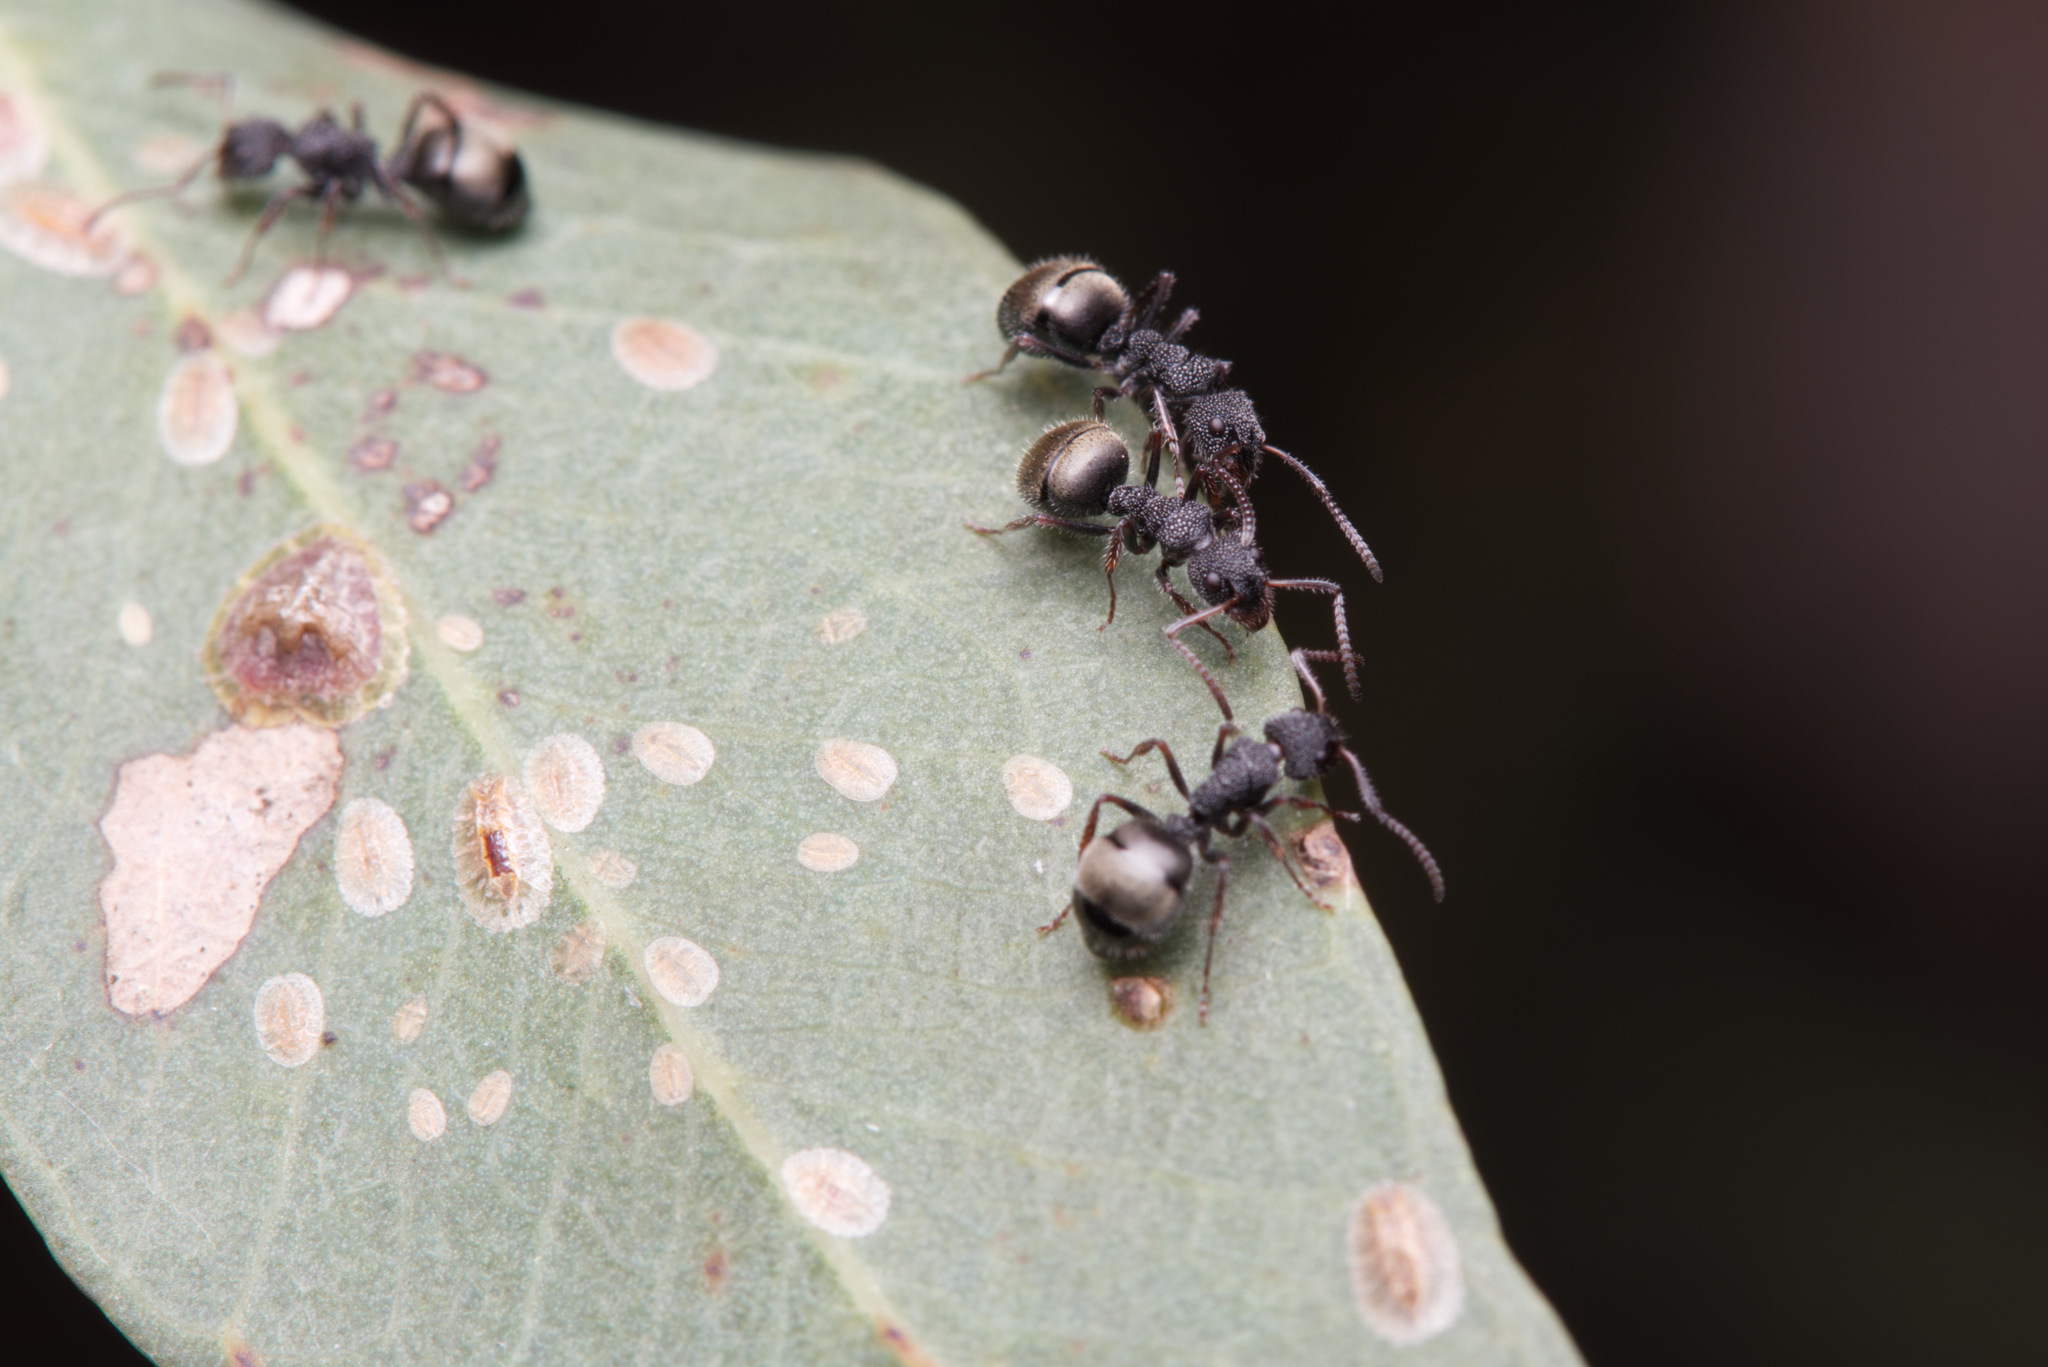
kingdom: Animalia
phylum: Arthropoda
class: Insecta
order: Hymenoptera
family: Formicidae
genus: Dolichoderus
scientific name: Dolichoderus scrobiculatus
